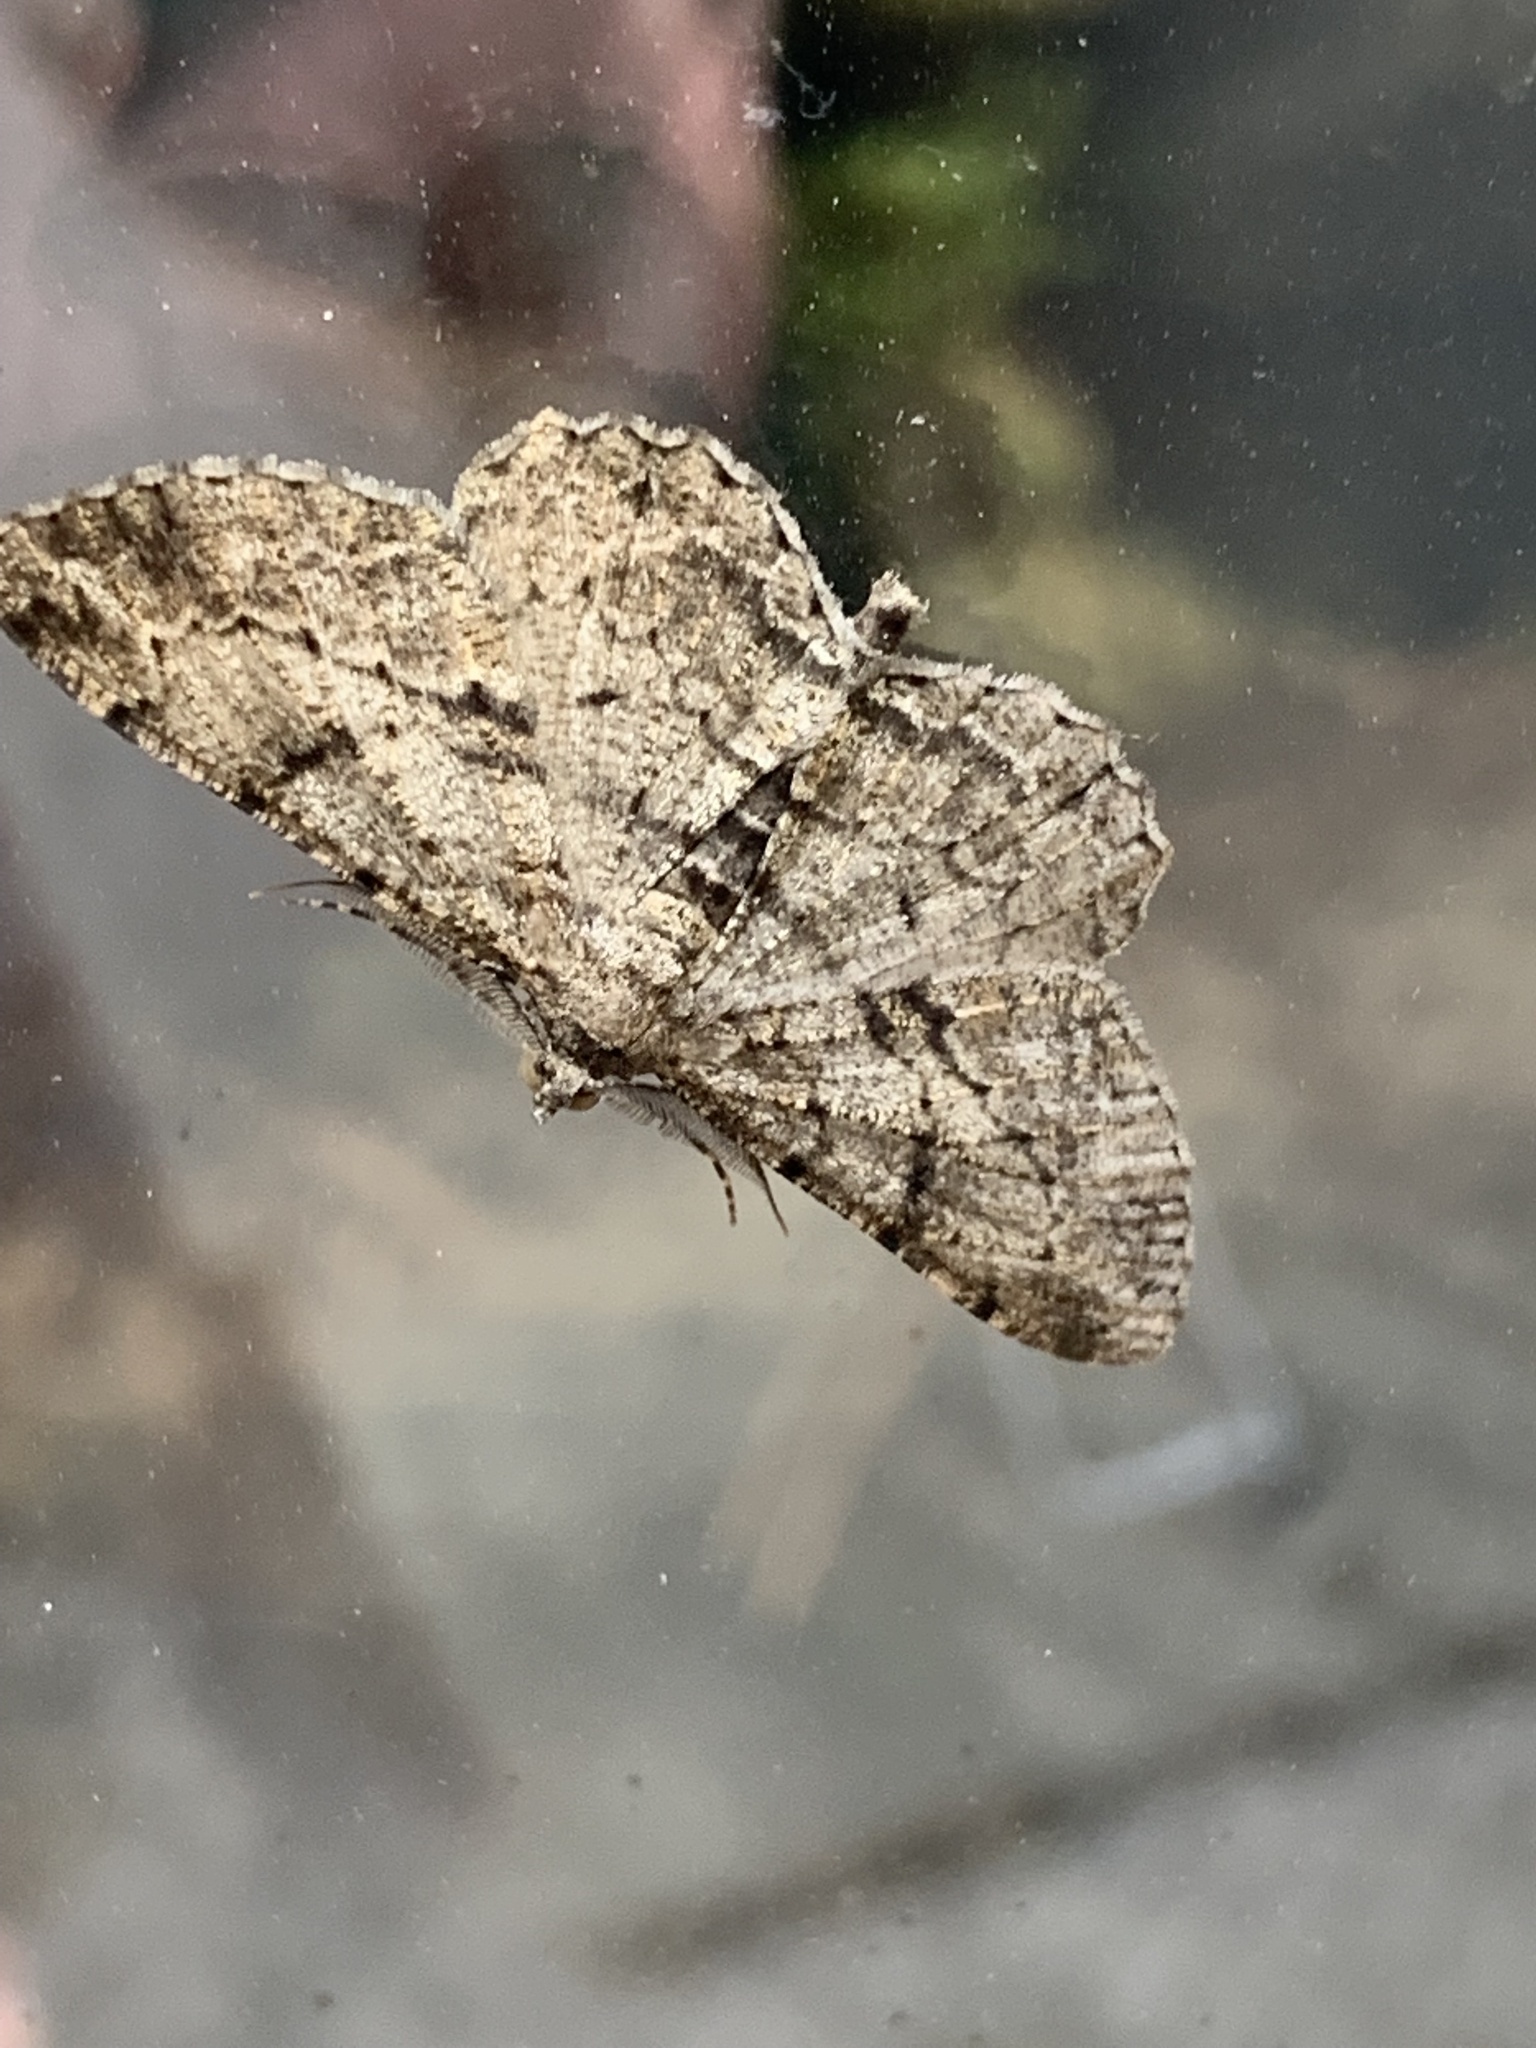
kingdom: Animalia
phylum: Arthropoda
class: Insecta
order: Lepidoptera
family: Geometridae
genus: Peribatodes
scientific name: Peribatodes rhomboidaria
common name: Willow beauty
